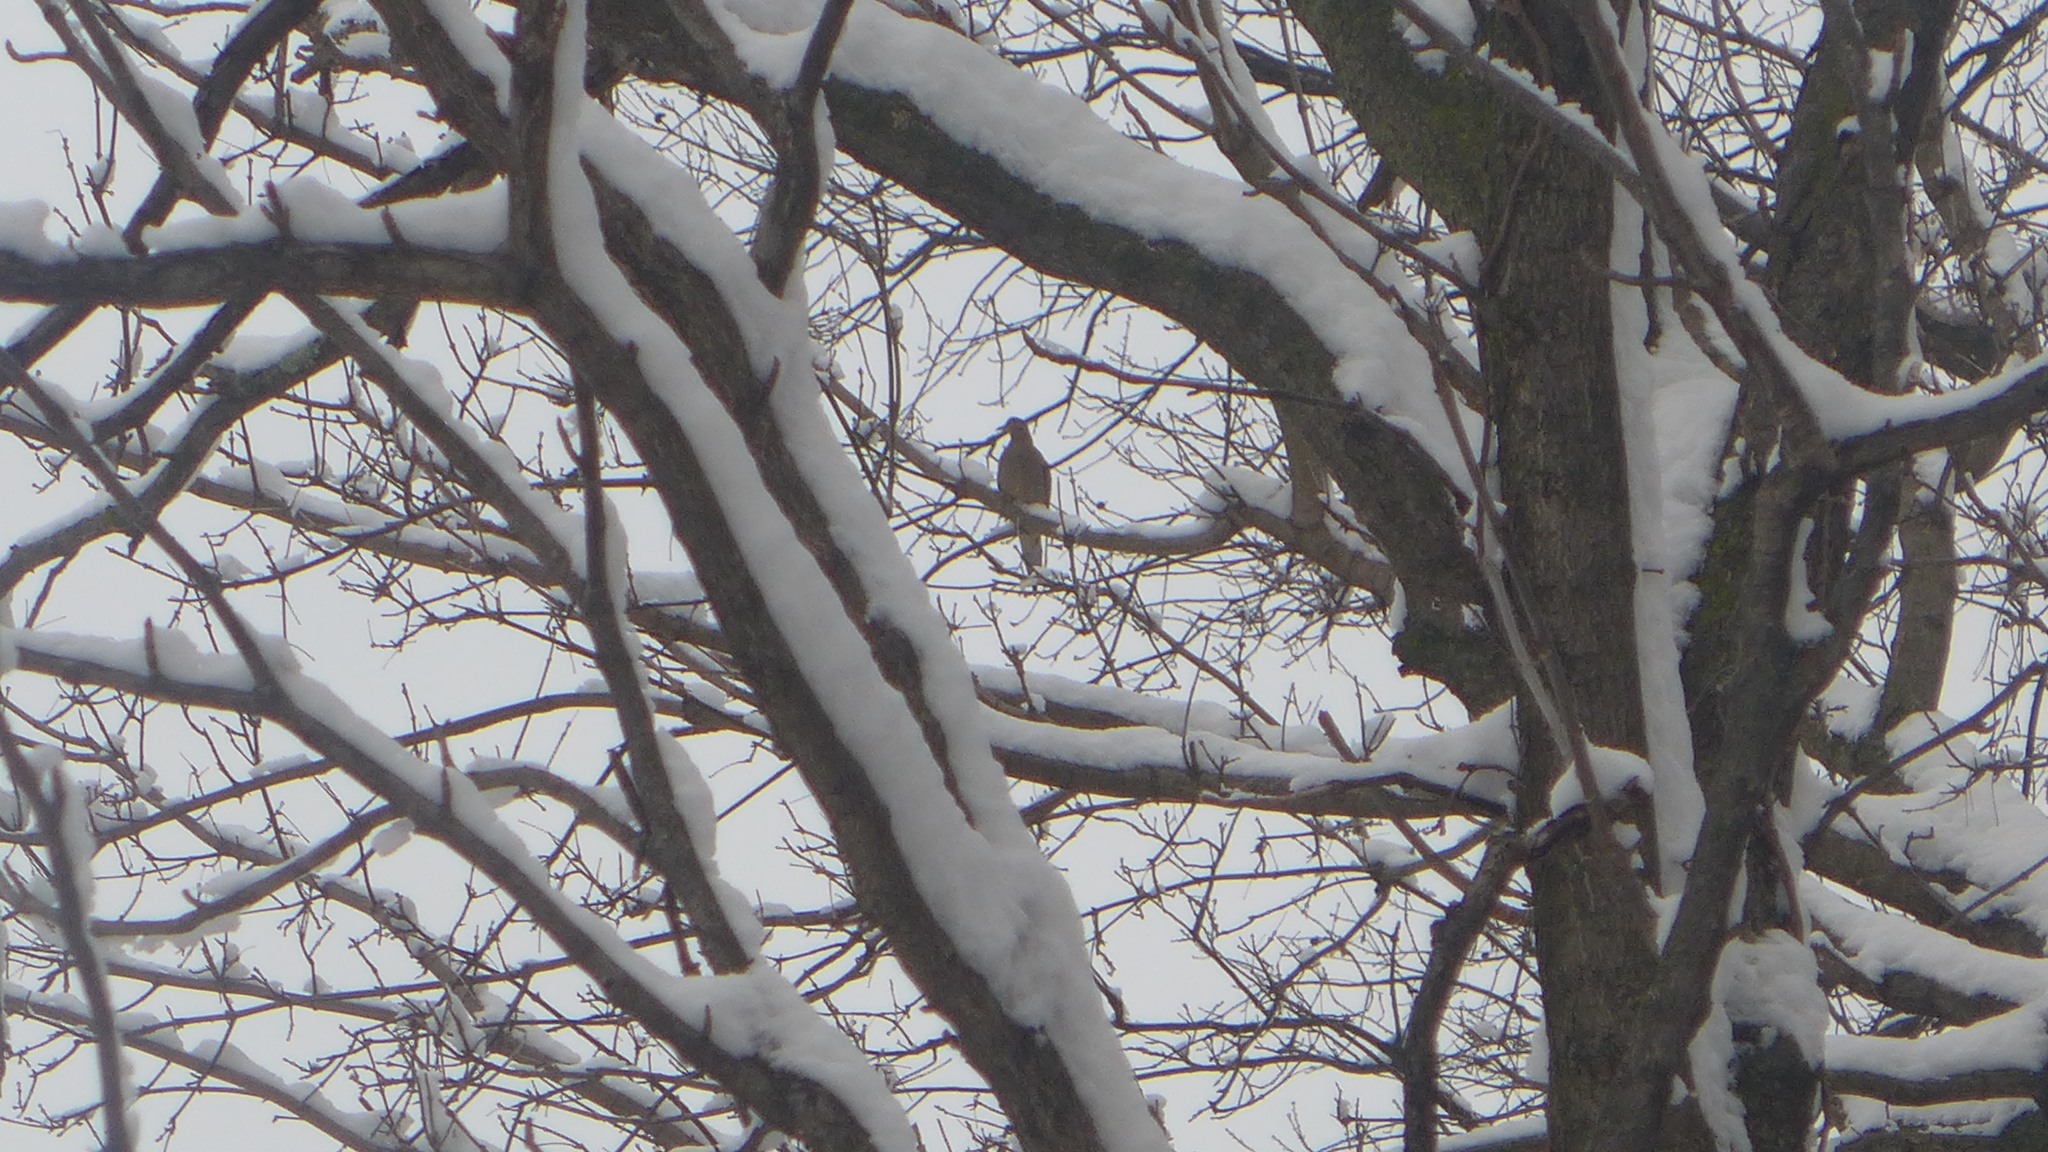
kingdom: Animalia
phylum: Chordata
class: Aves
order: Columbiformes
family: Columbidae
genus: Zenaida
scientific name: Zenaida macroura
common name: Mourning dove
